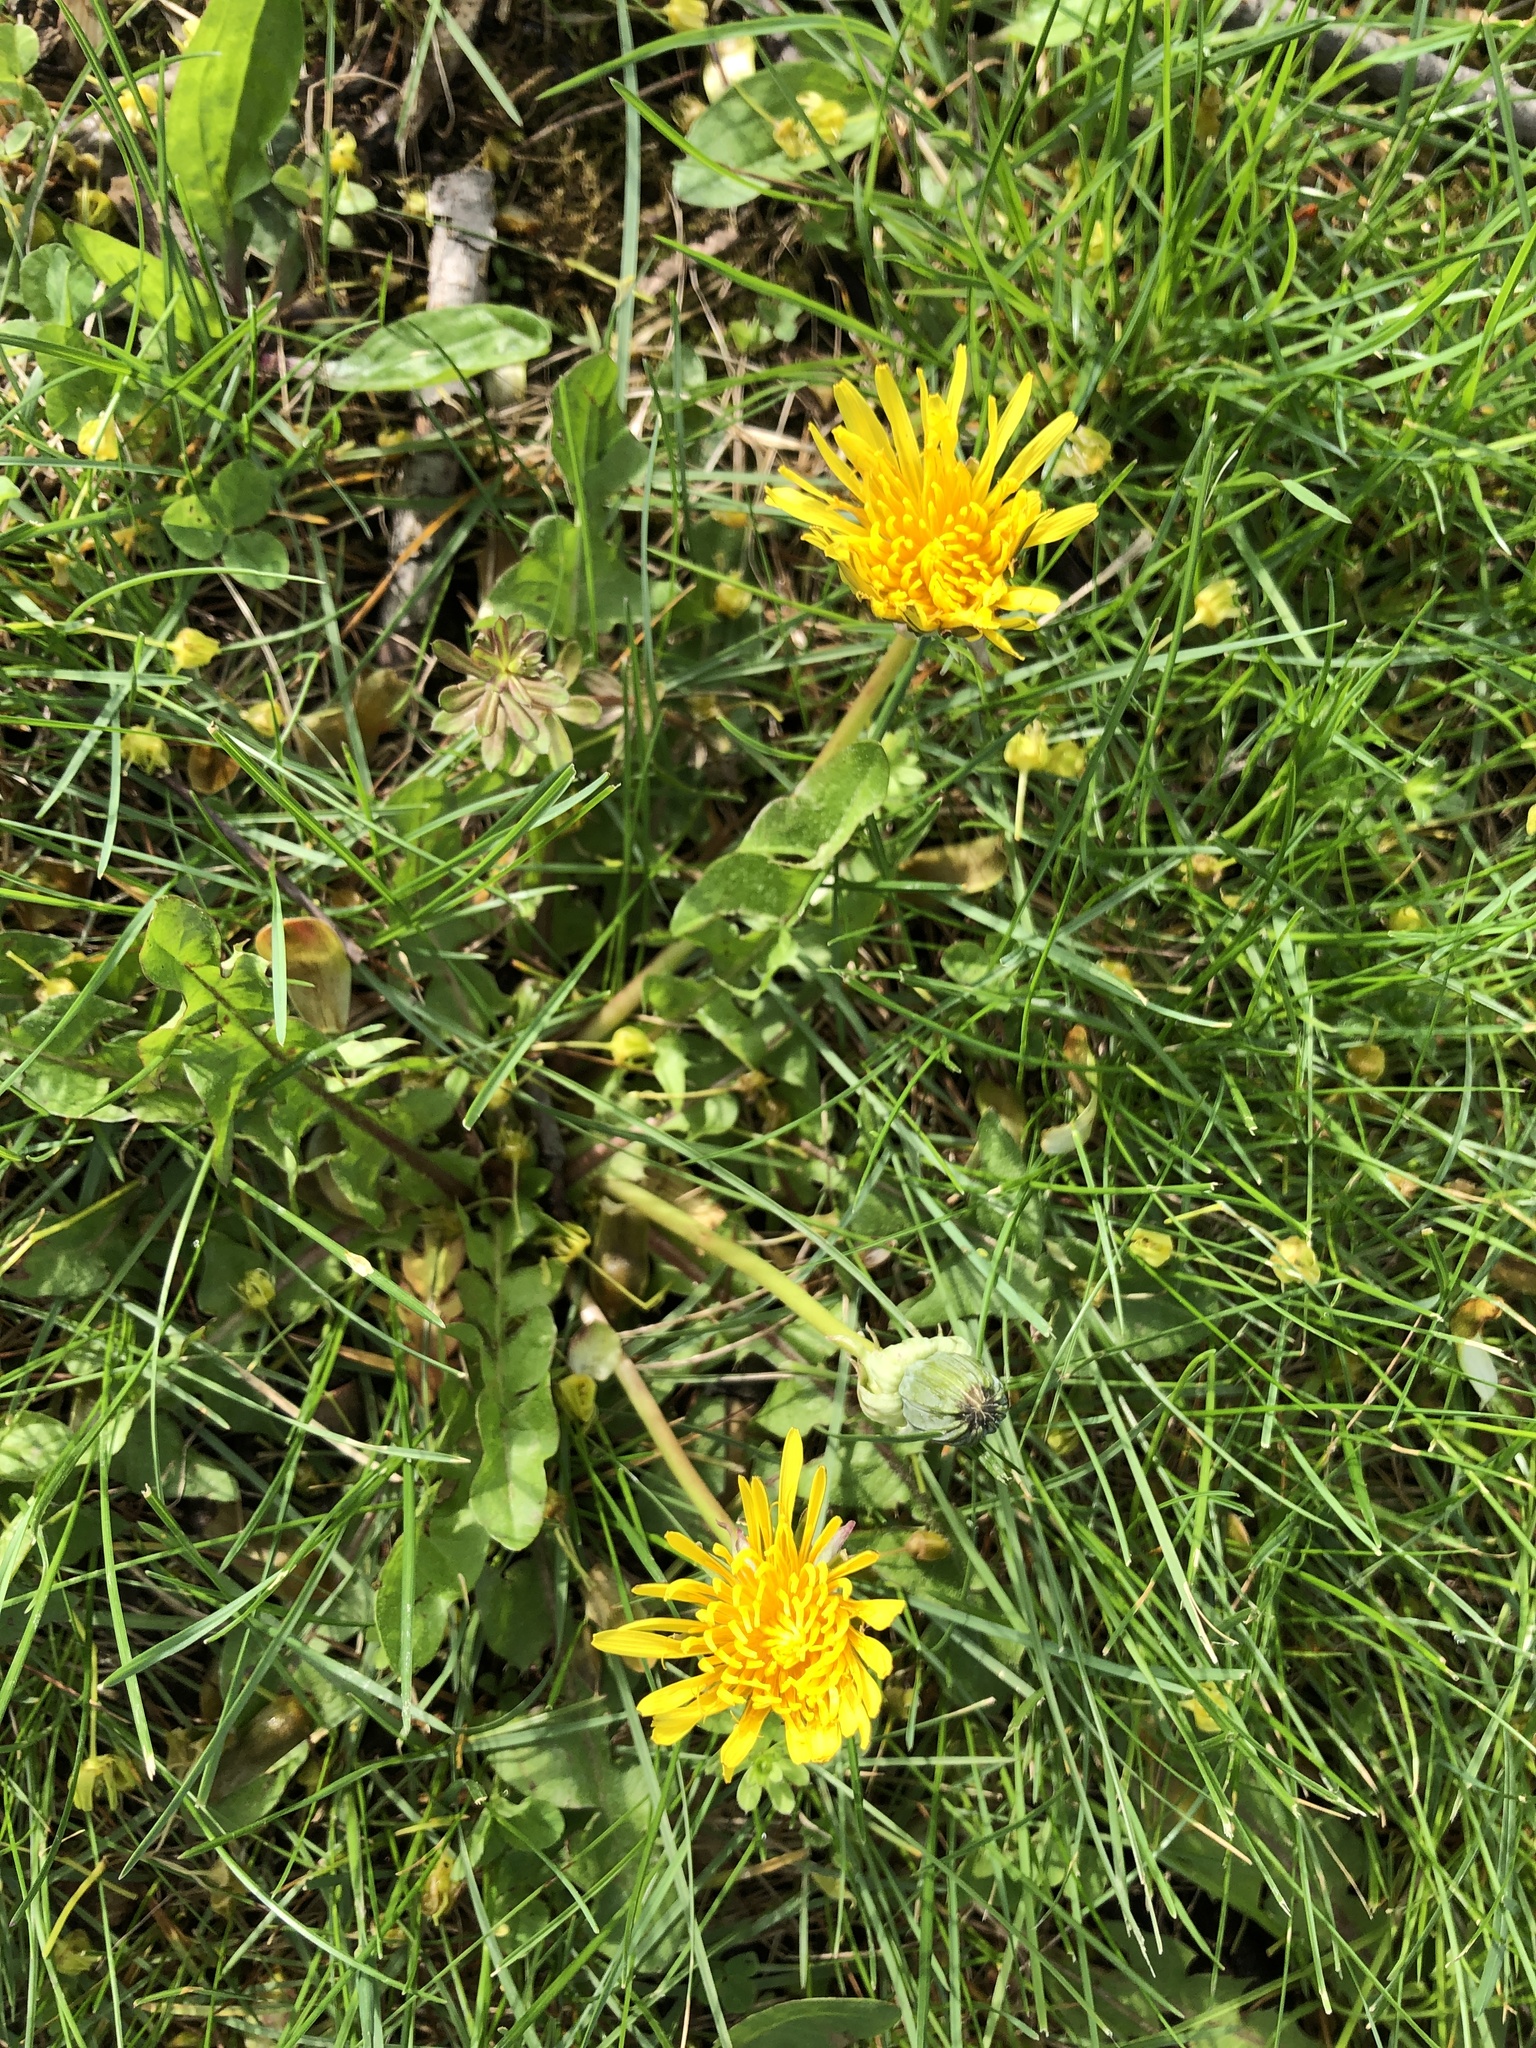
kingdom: Plantae
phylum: Tracheophyta
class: Magnoliopsida
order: Asterales
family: Asteraceae
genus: Taraxacum
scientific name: Taraxacum officinale
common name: Common dandelion
